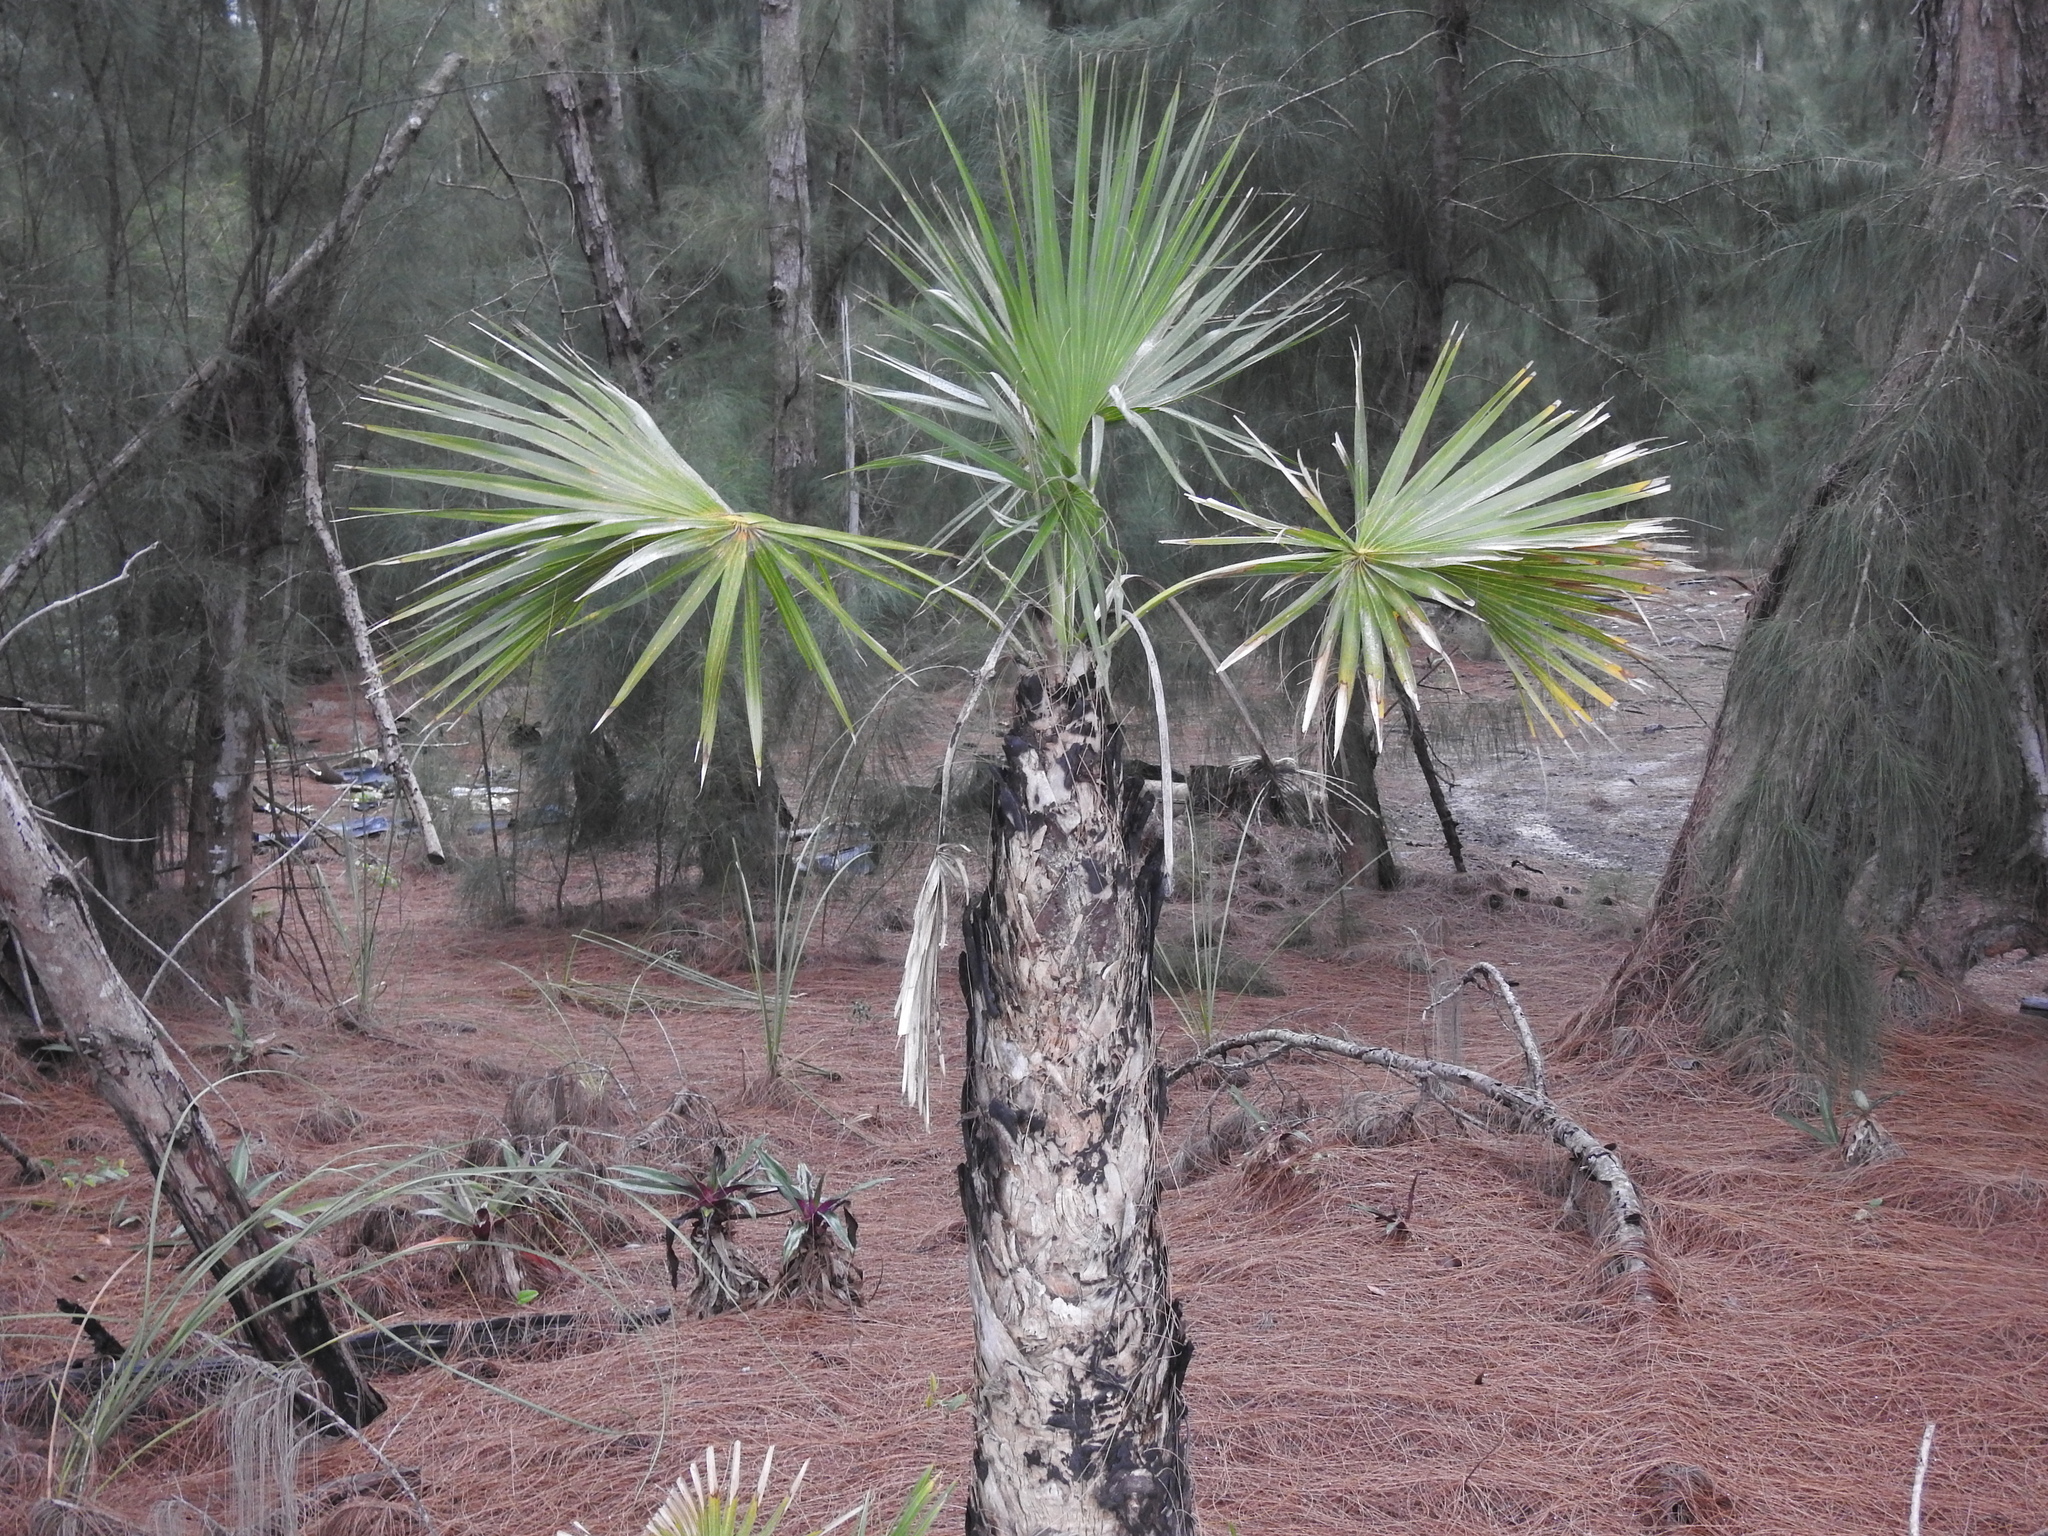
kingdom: Plantae
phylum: Tracheophyta
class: Liliopsida
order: Arecales
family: Arecaceae
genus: Sabal
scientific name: Sabal palmetto
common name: Blue palmetto
